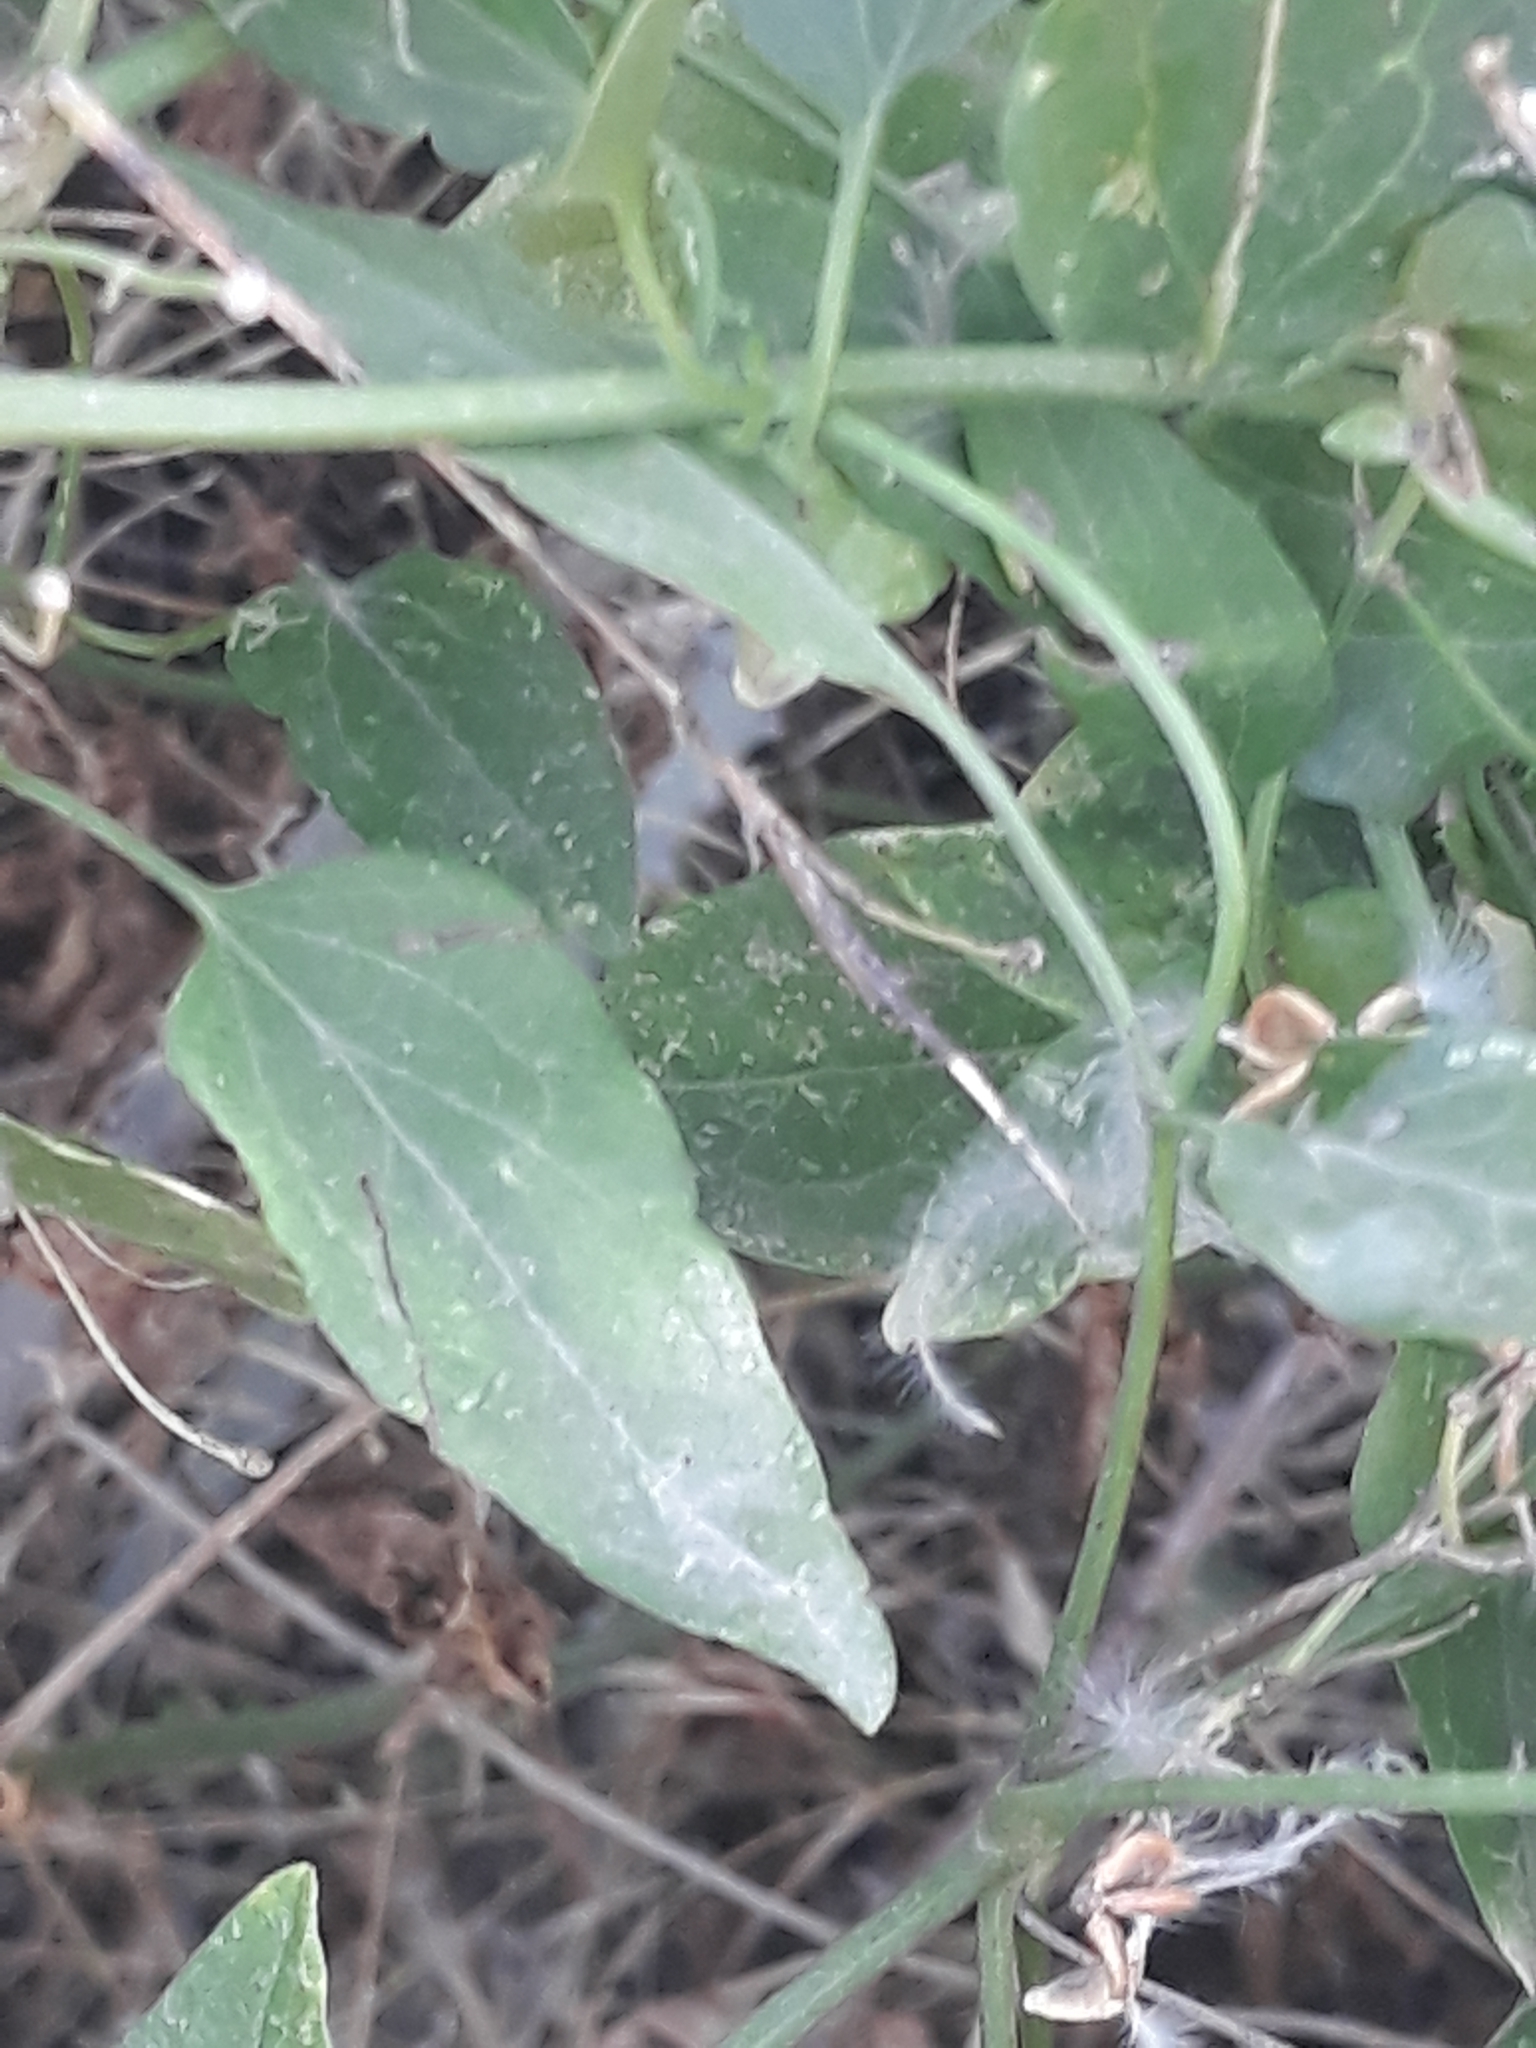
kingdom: Plantae
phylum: Tracheophyta
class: Magnoliopsida
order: Ranunculales
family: Ranunculaceae
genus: Clematis
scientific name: Clematis flammula
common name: Virgin's-bower
